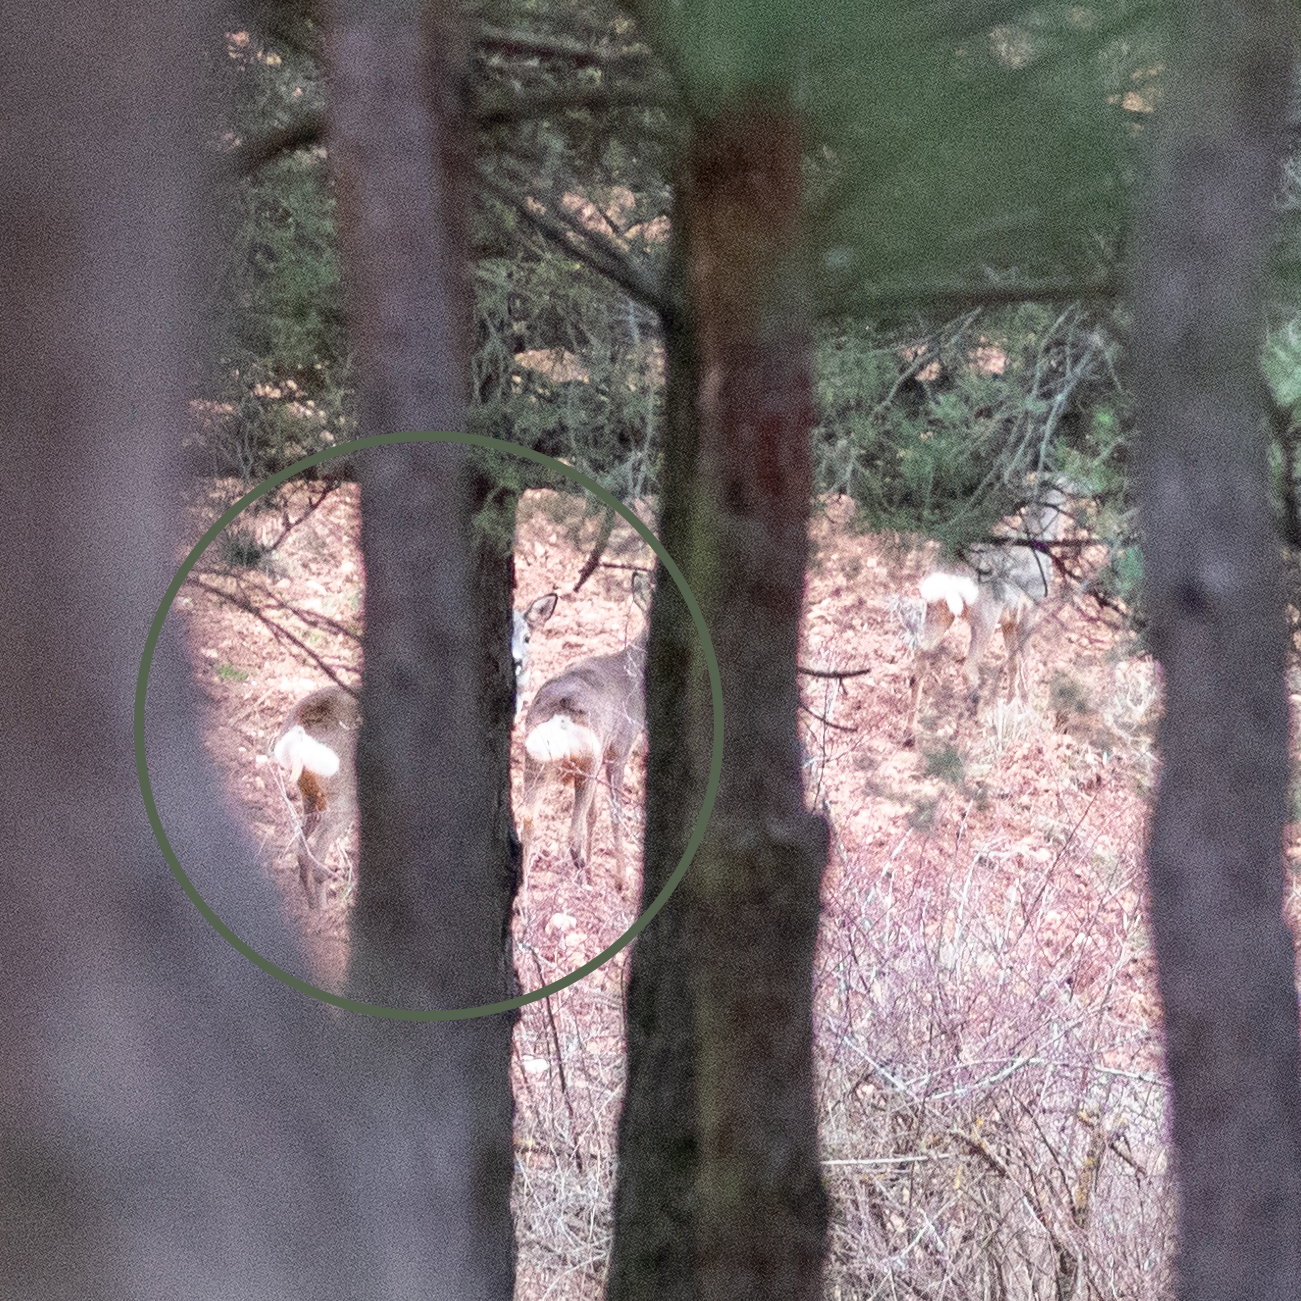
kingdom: Animalia
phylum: Chordata
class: Mammalia
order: Artiodactyla
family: Cervidae
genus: Capreolus
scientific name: Capreolus capreolus
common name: Western roe deer
